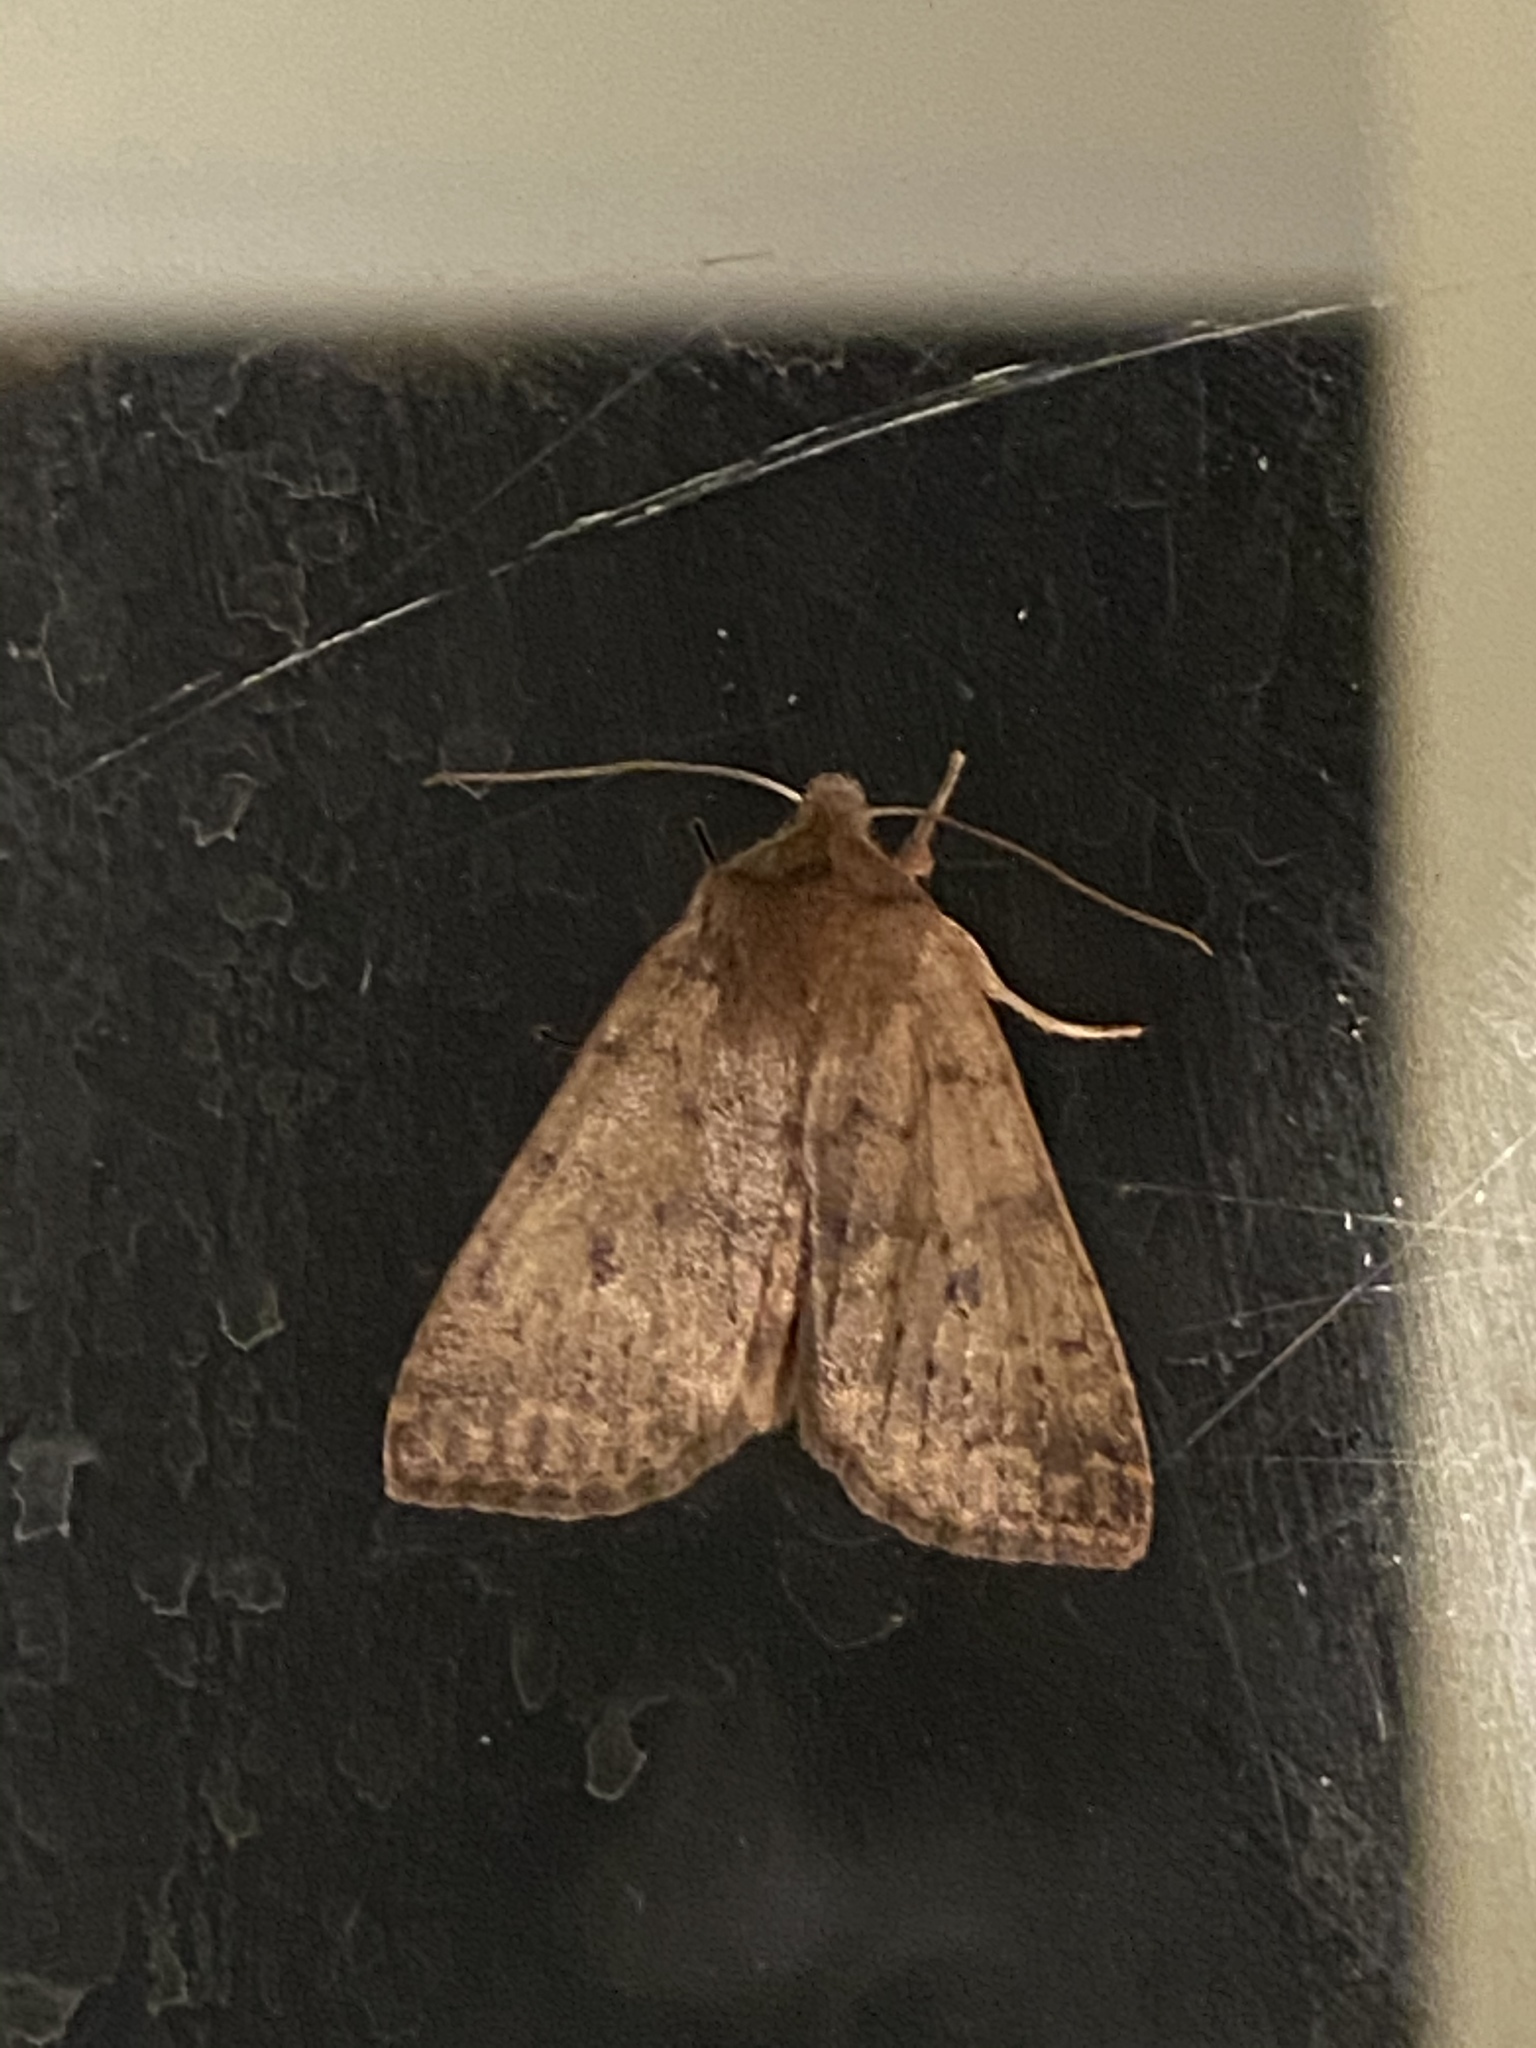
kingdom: Animalia
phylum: Arthropoda
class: Insecta
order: Lepidoptera
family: Noctuidae
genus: Agrochola
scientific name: Agrochola bicolorago
